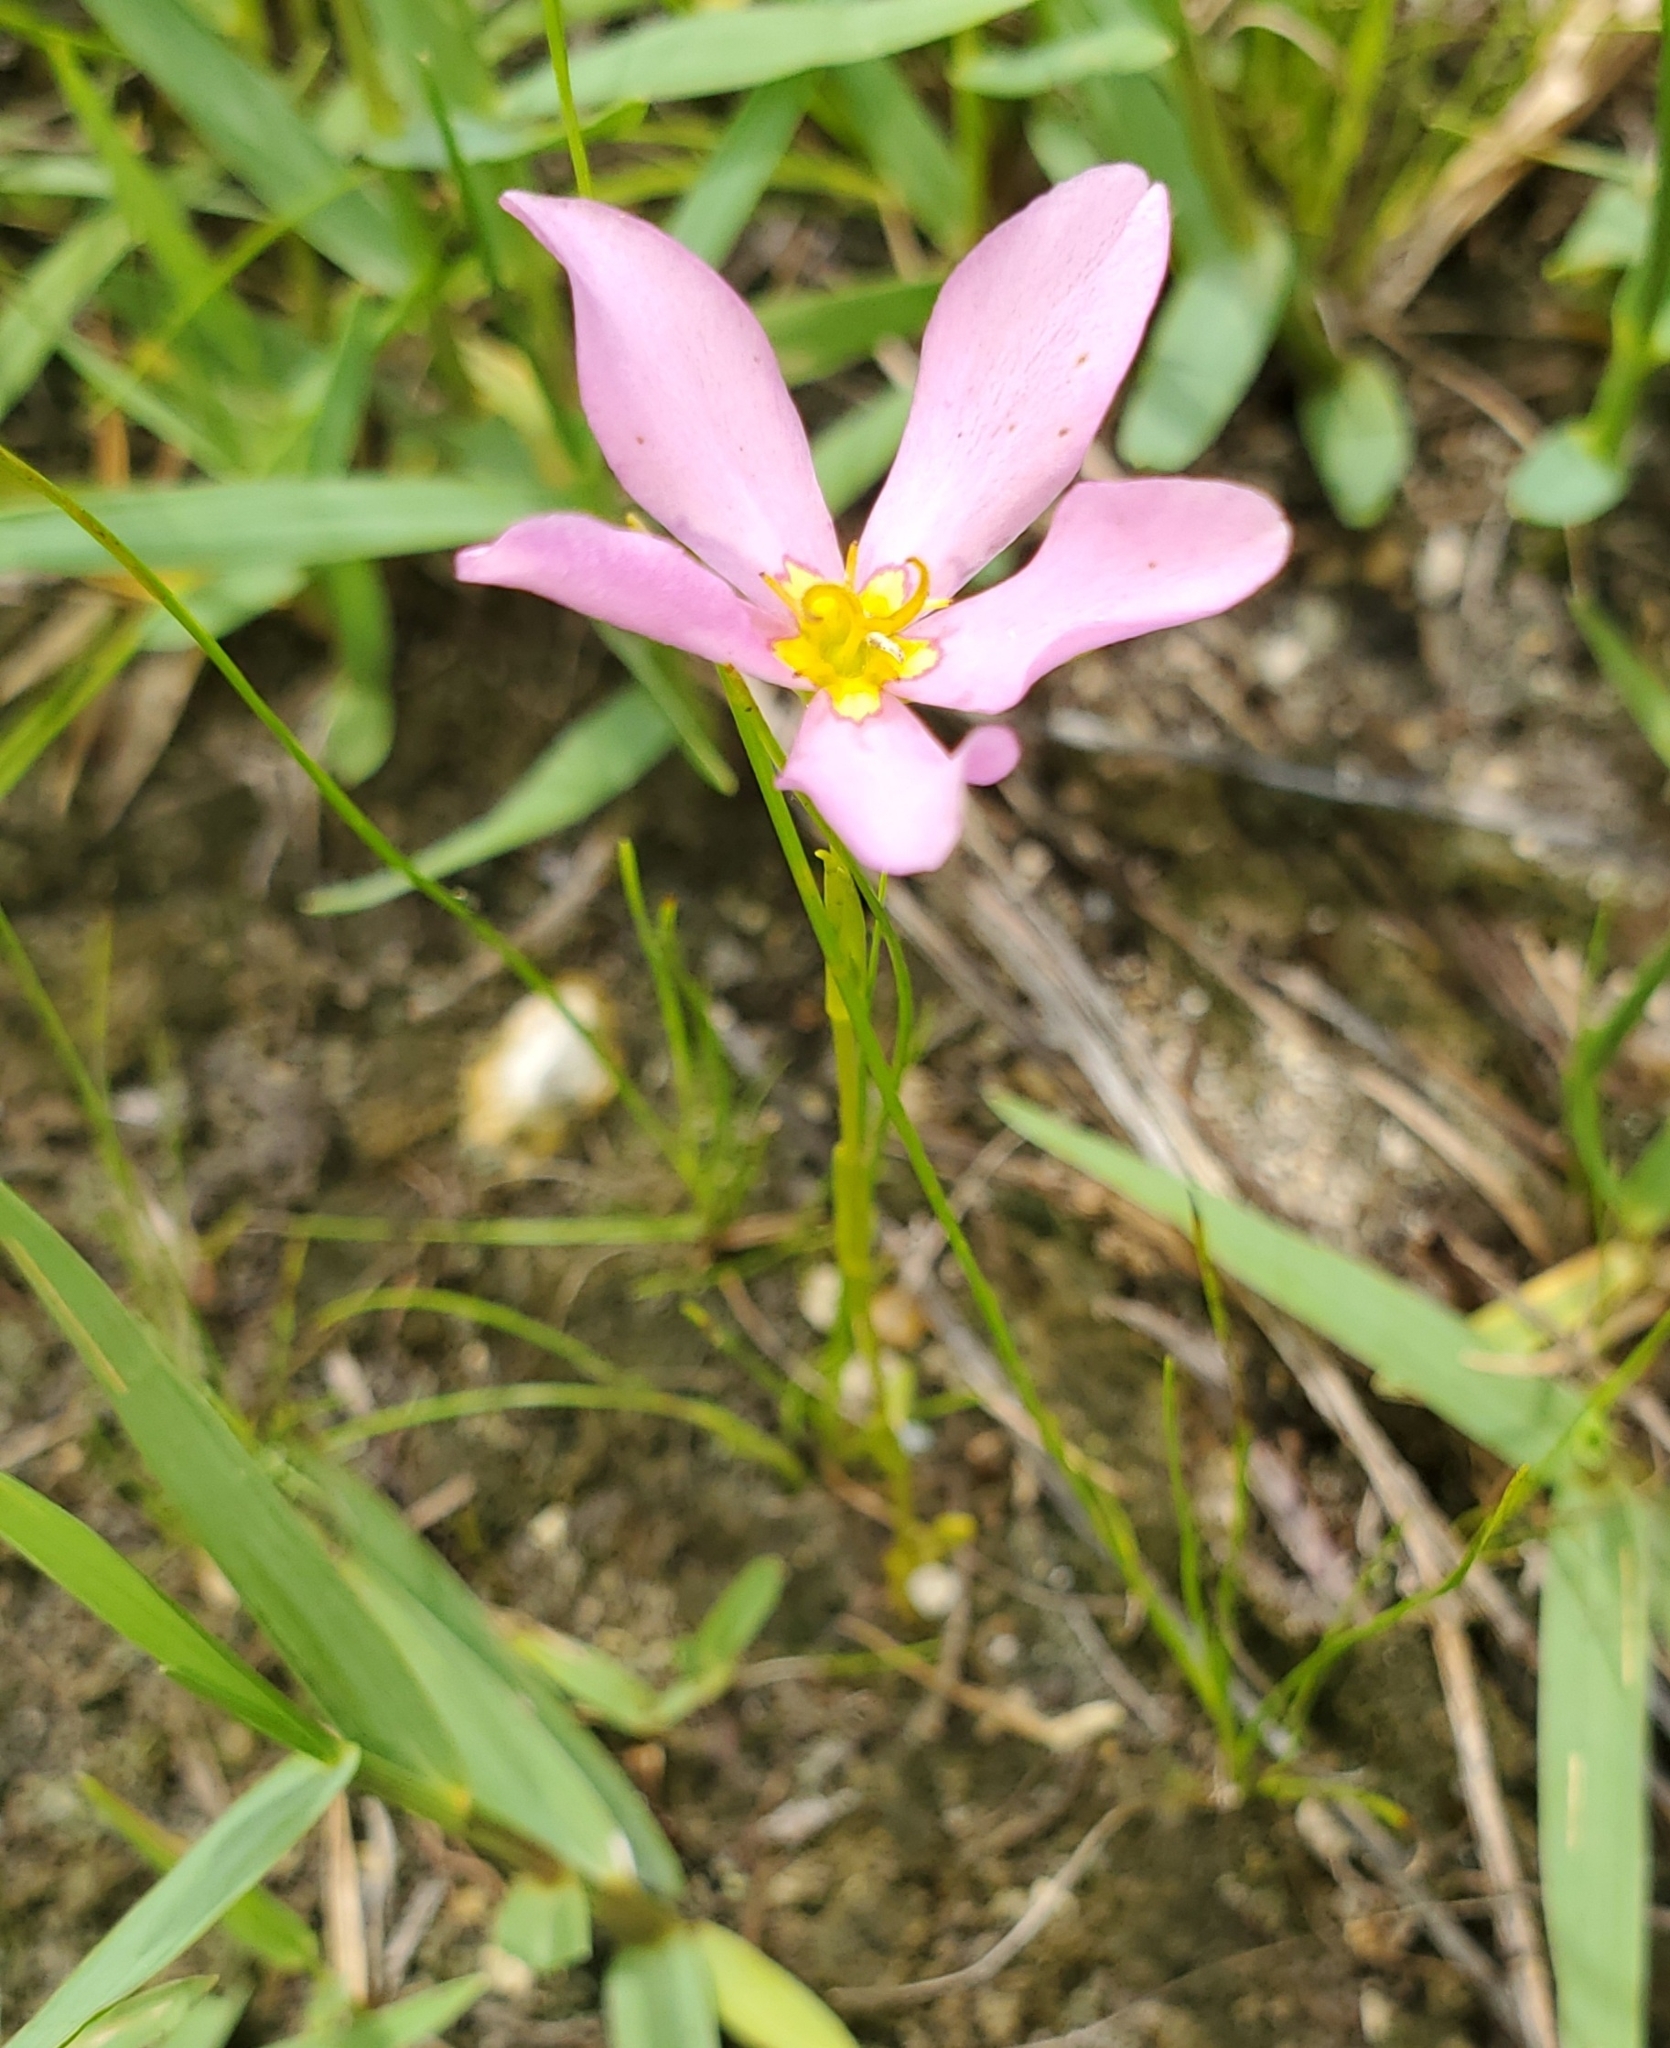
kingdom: Plantae
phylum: Tracheophyta
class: Magnoliopsida
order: Gentianales
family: Gentianaceae
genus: Sabatia
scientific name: Sabatia stellaris
